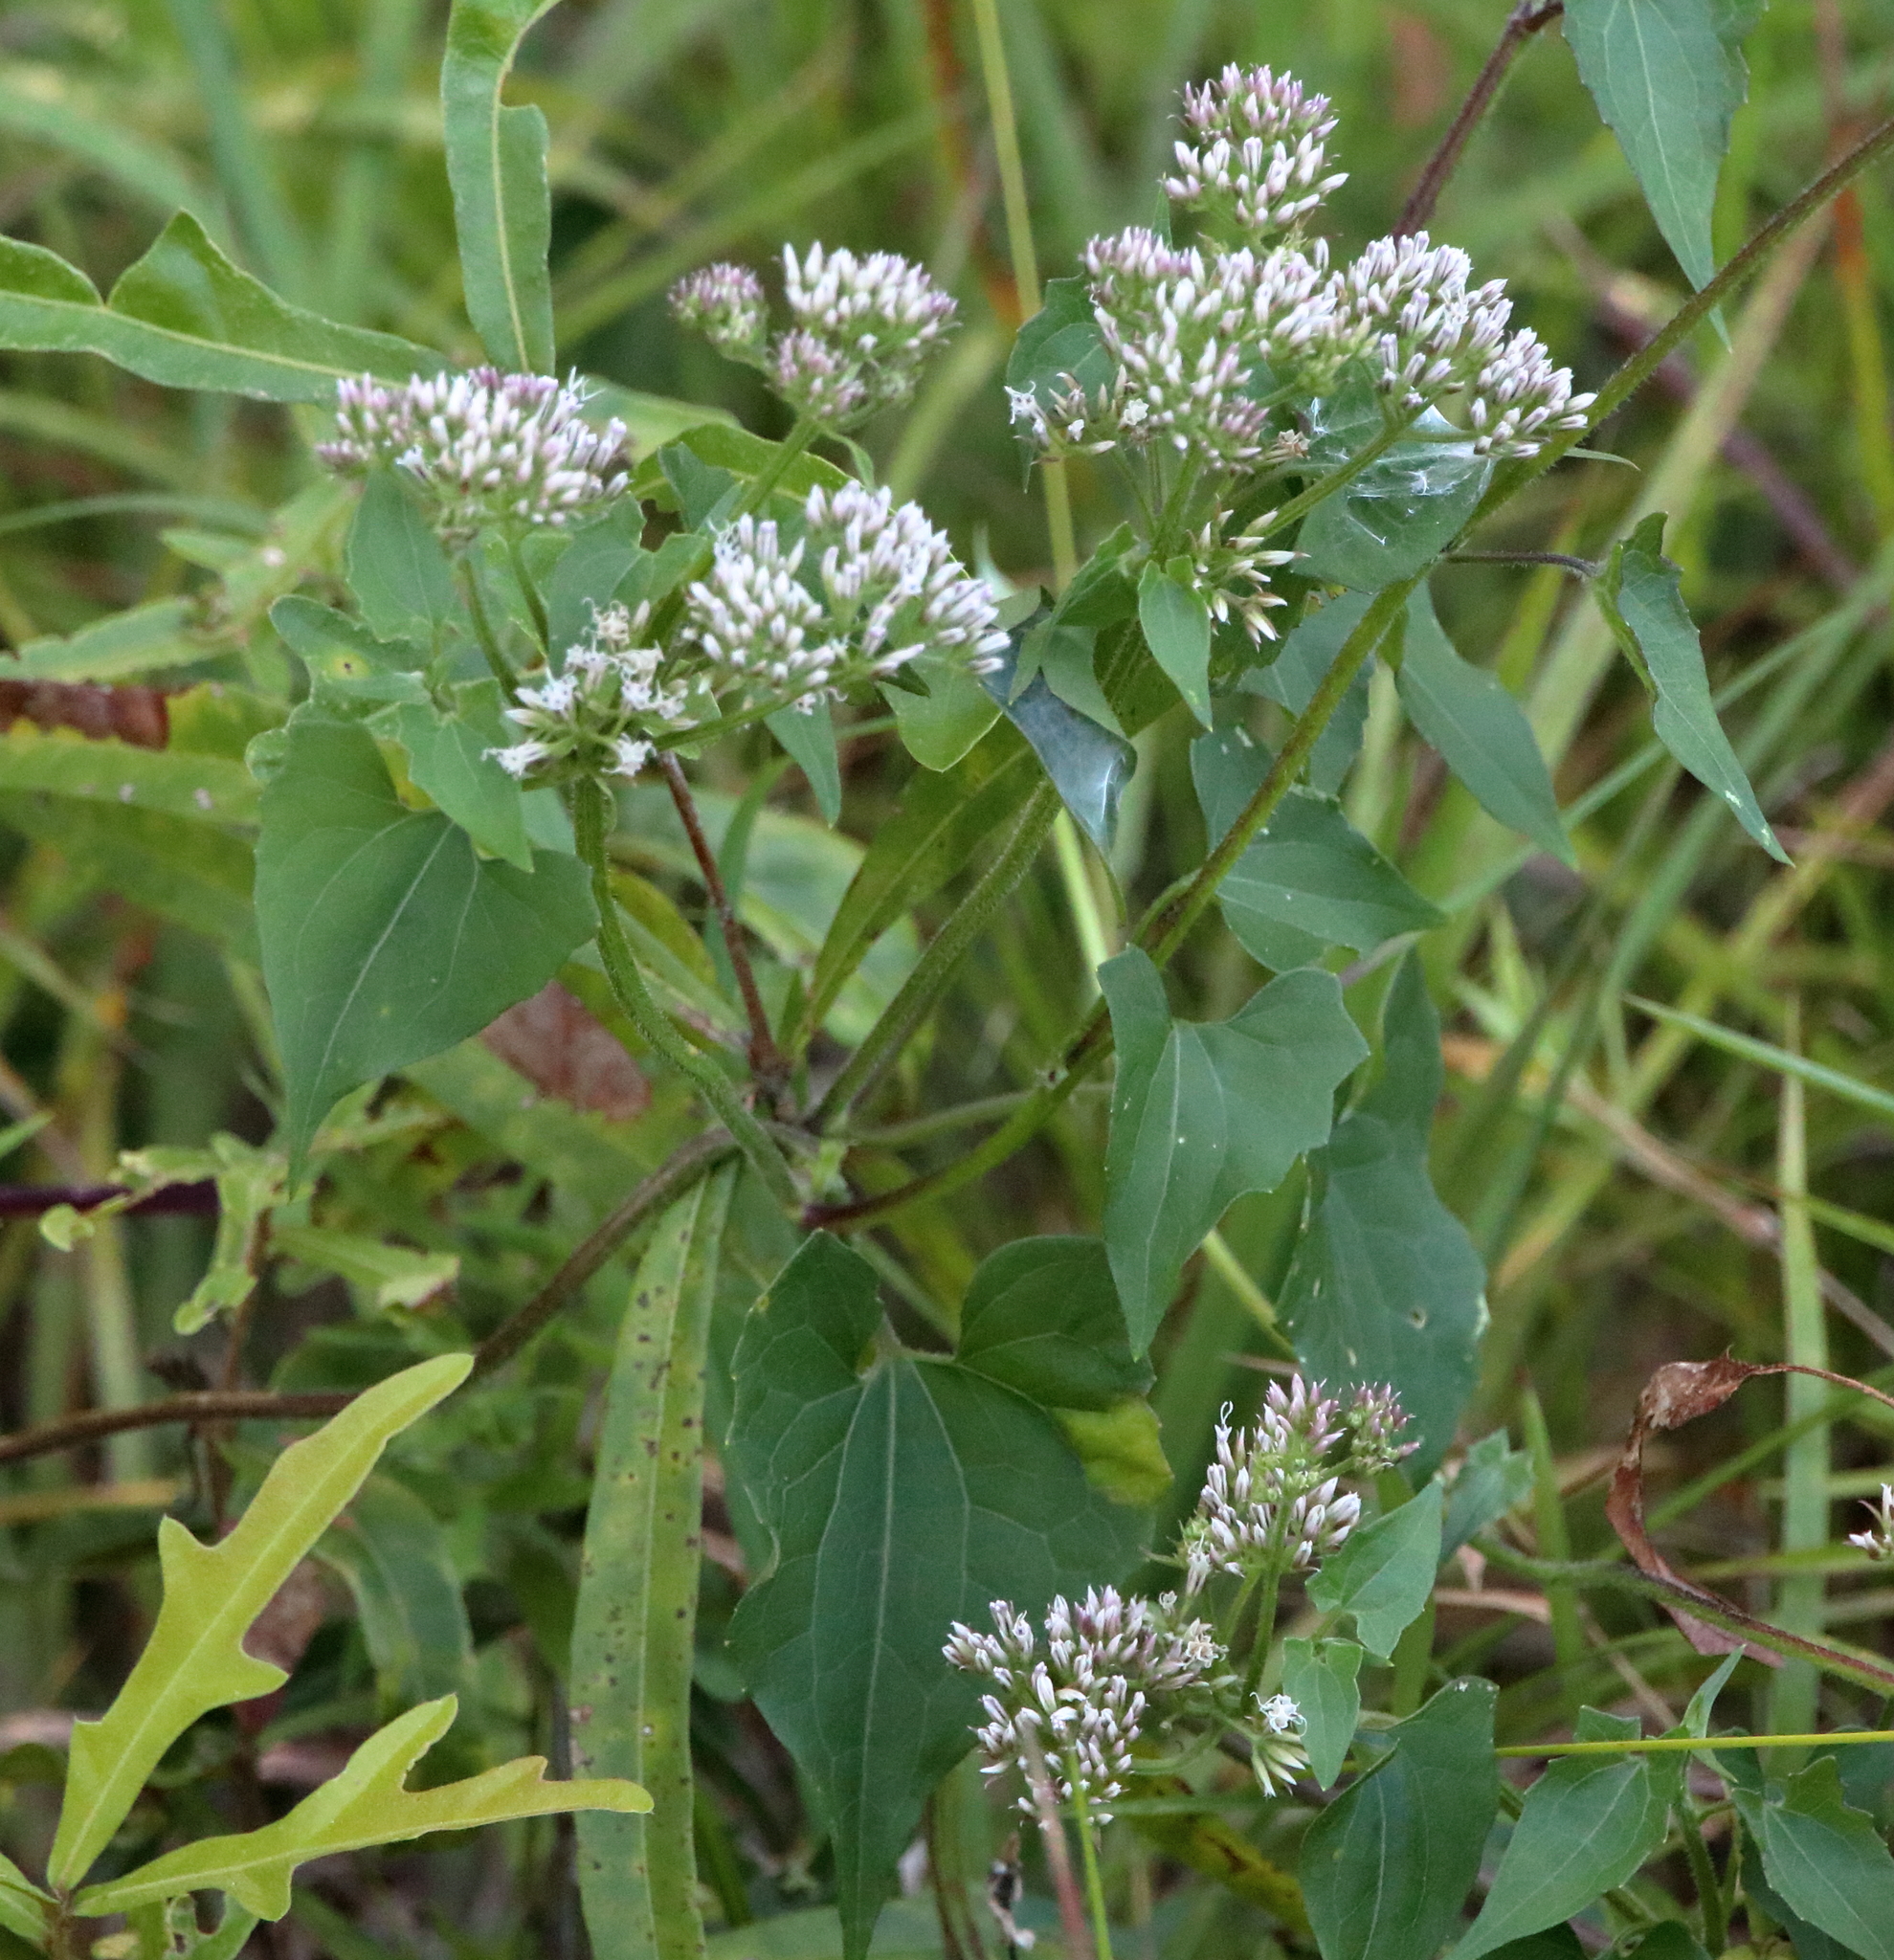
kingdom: Plantae
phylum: Tracheophyta
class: Magnoliopsida
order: Asterales
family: Asteraceae
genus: Mikania
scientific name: Mikania scandens
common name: Climbing hempvine
